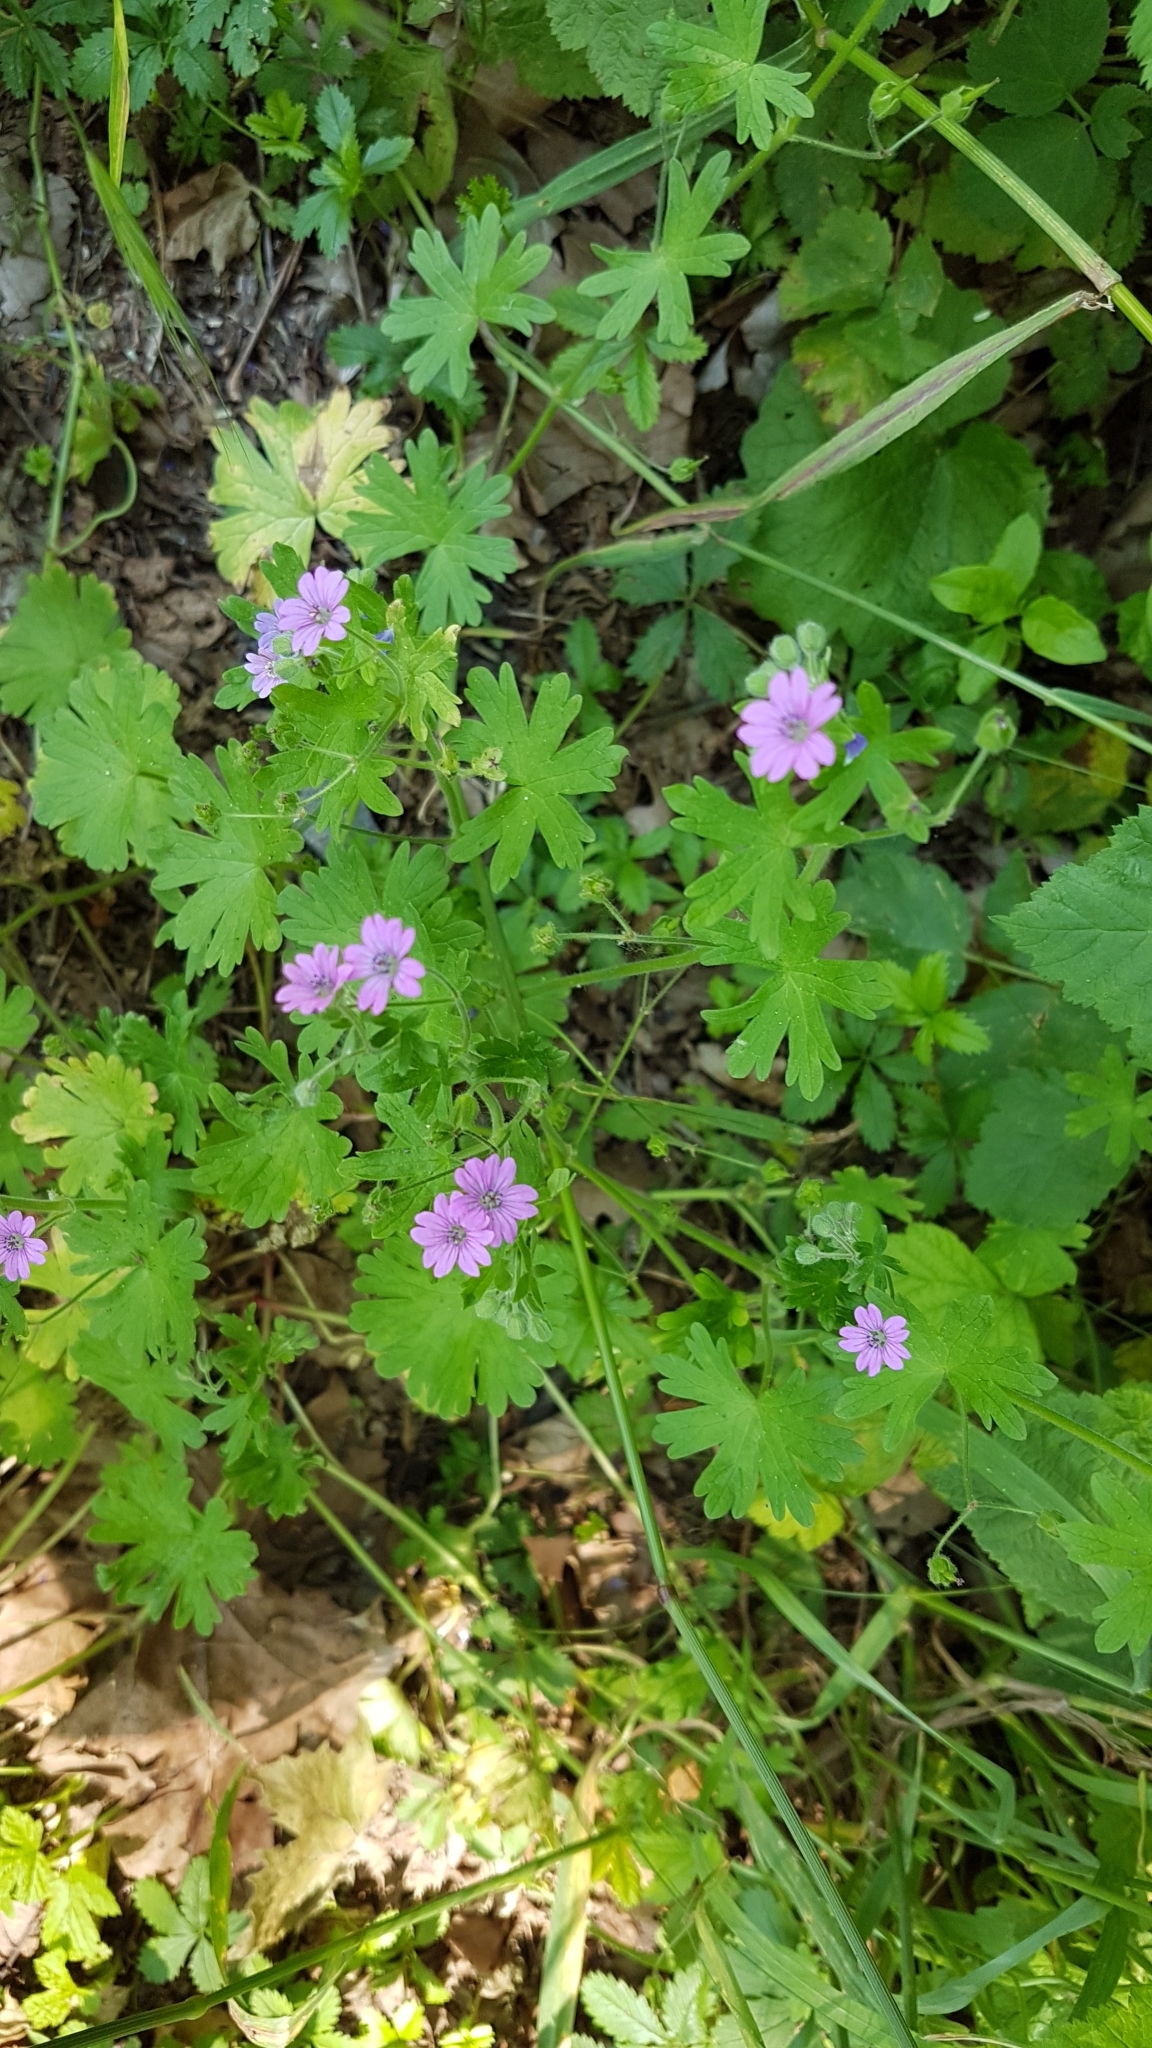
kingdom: Plantae
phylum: Tracheophyta
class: Magnoliopsida
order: Geraniales
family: Geraniaceae
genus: Geranium
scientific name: Geranium columbinum
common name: Long-stalked crane's-bill
